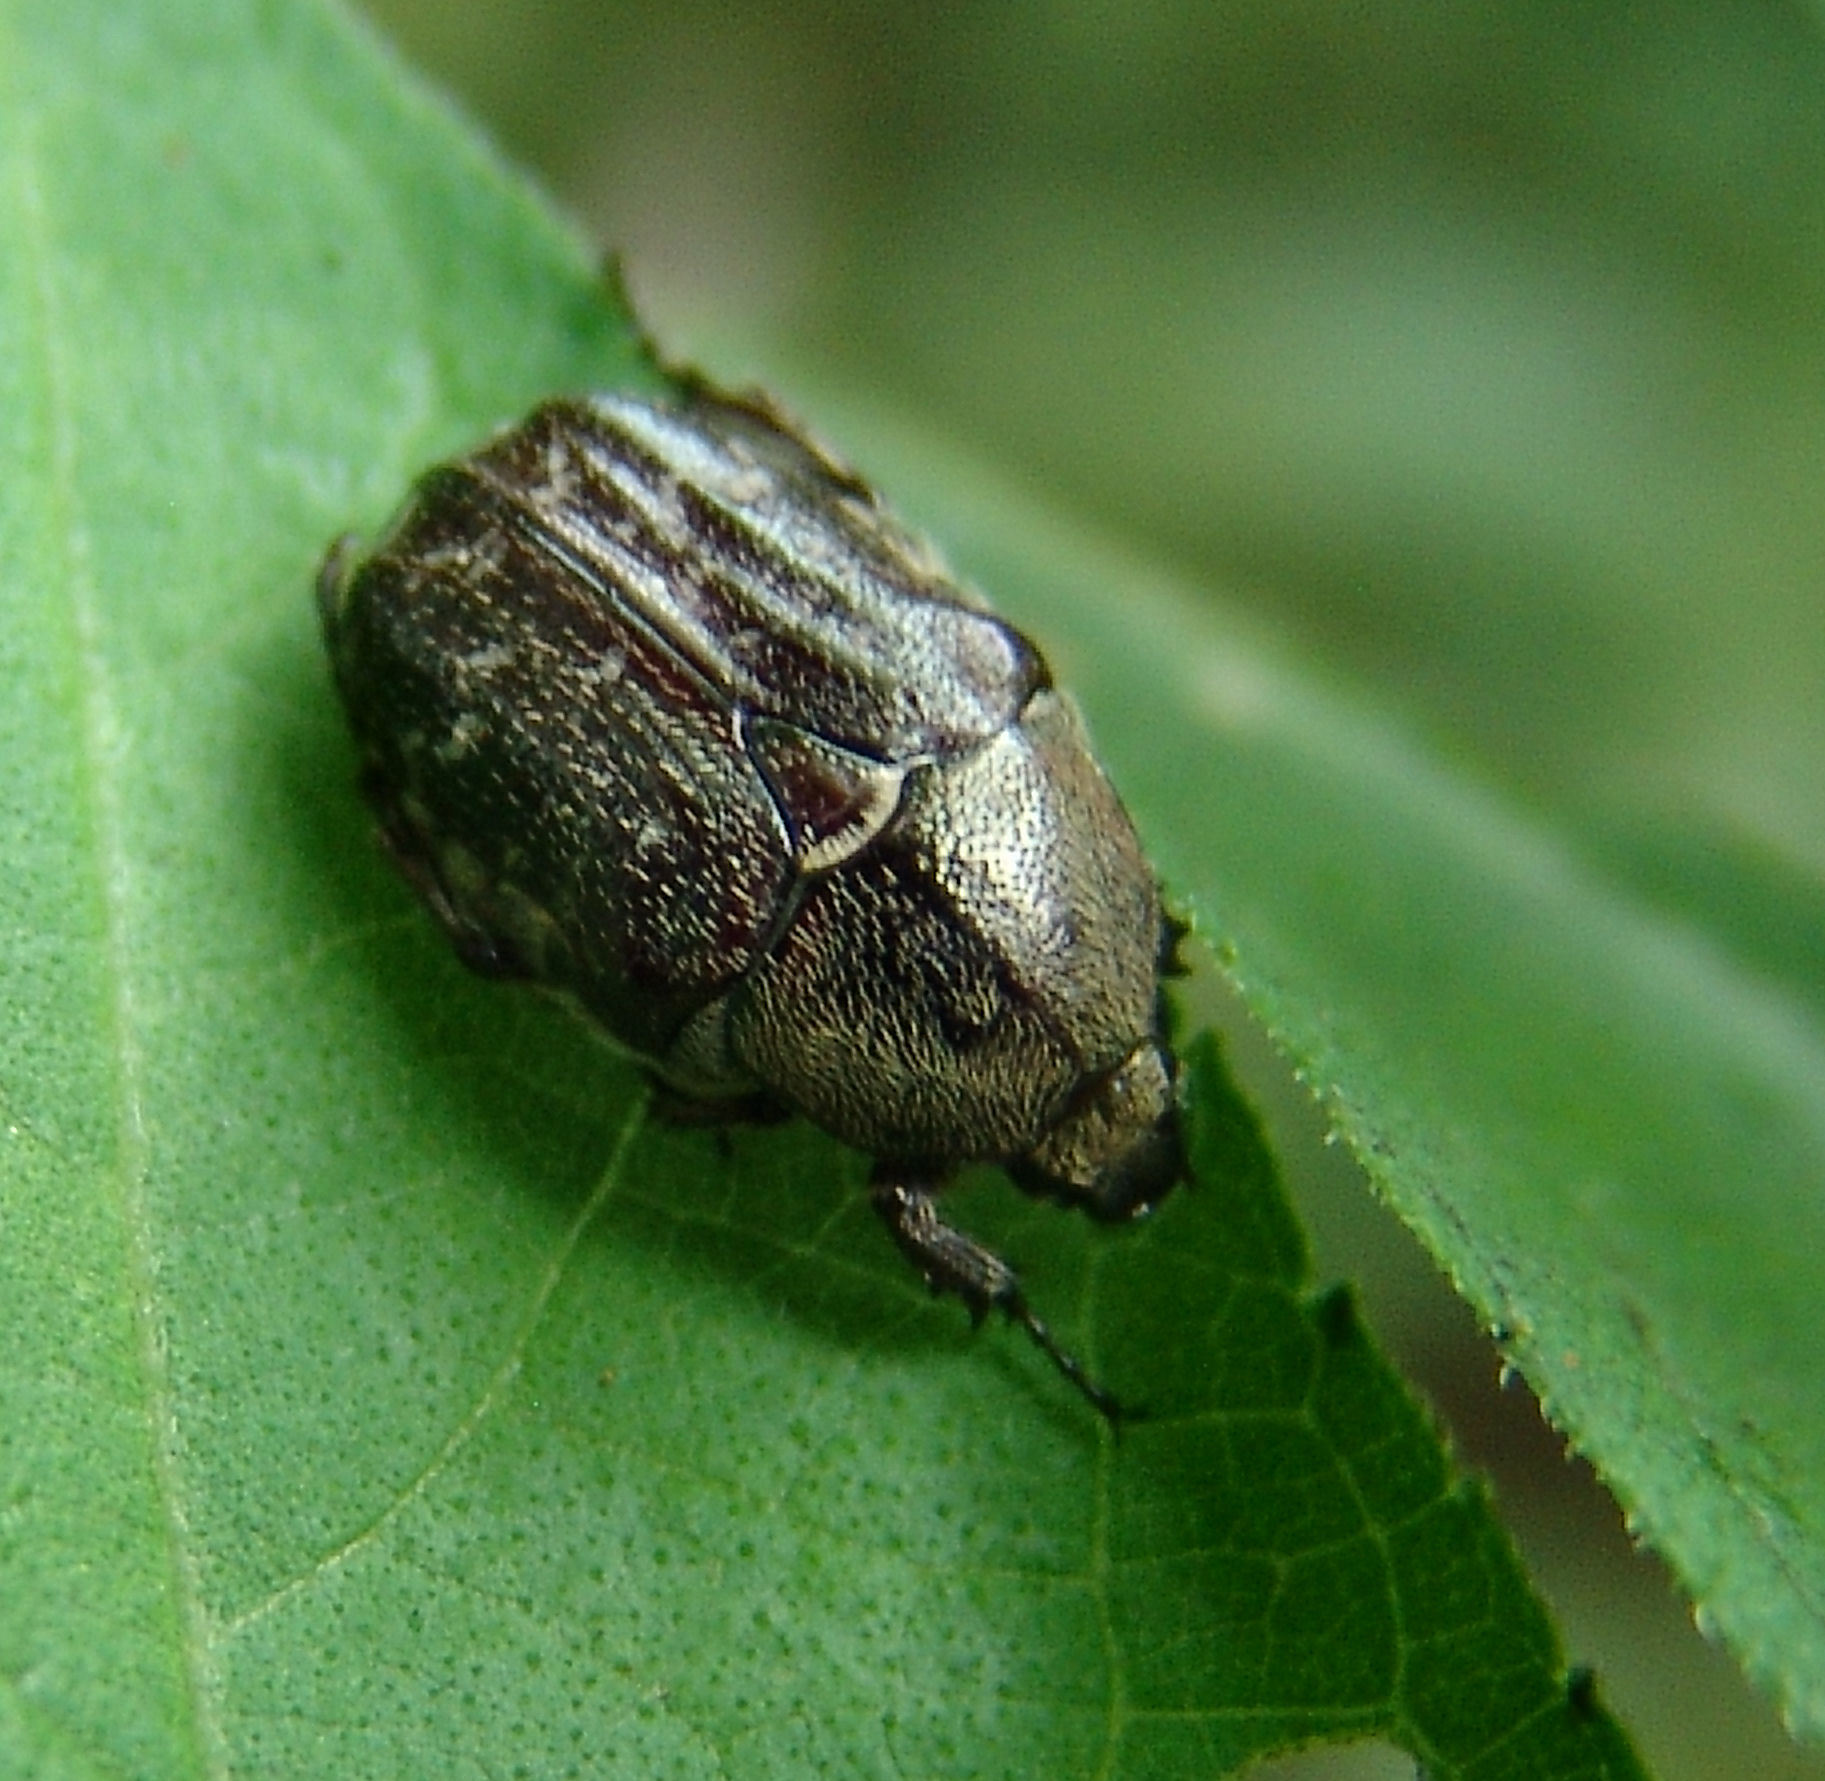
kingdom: Animalia
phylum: Arthropoda
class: Insecta
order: Coleoptera
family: Scarabaeidae
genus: Euphoria
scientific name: Euphoria sepulcralis
